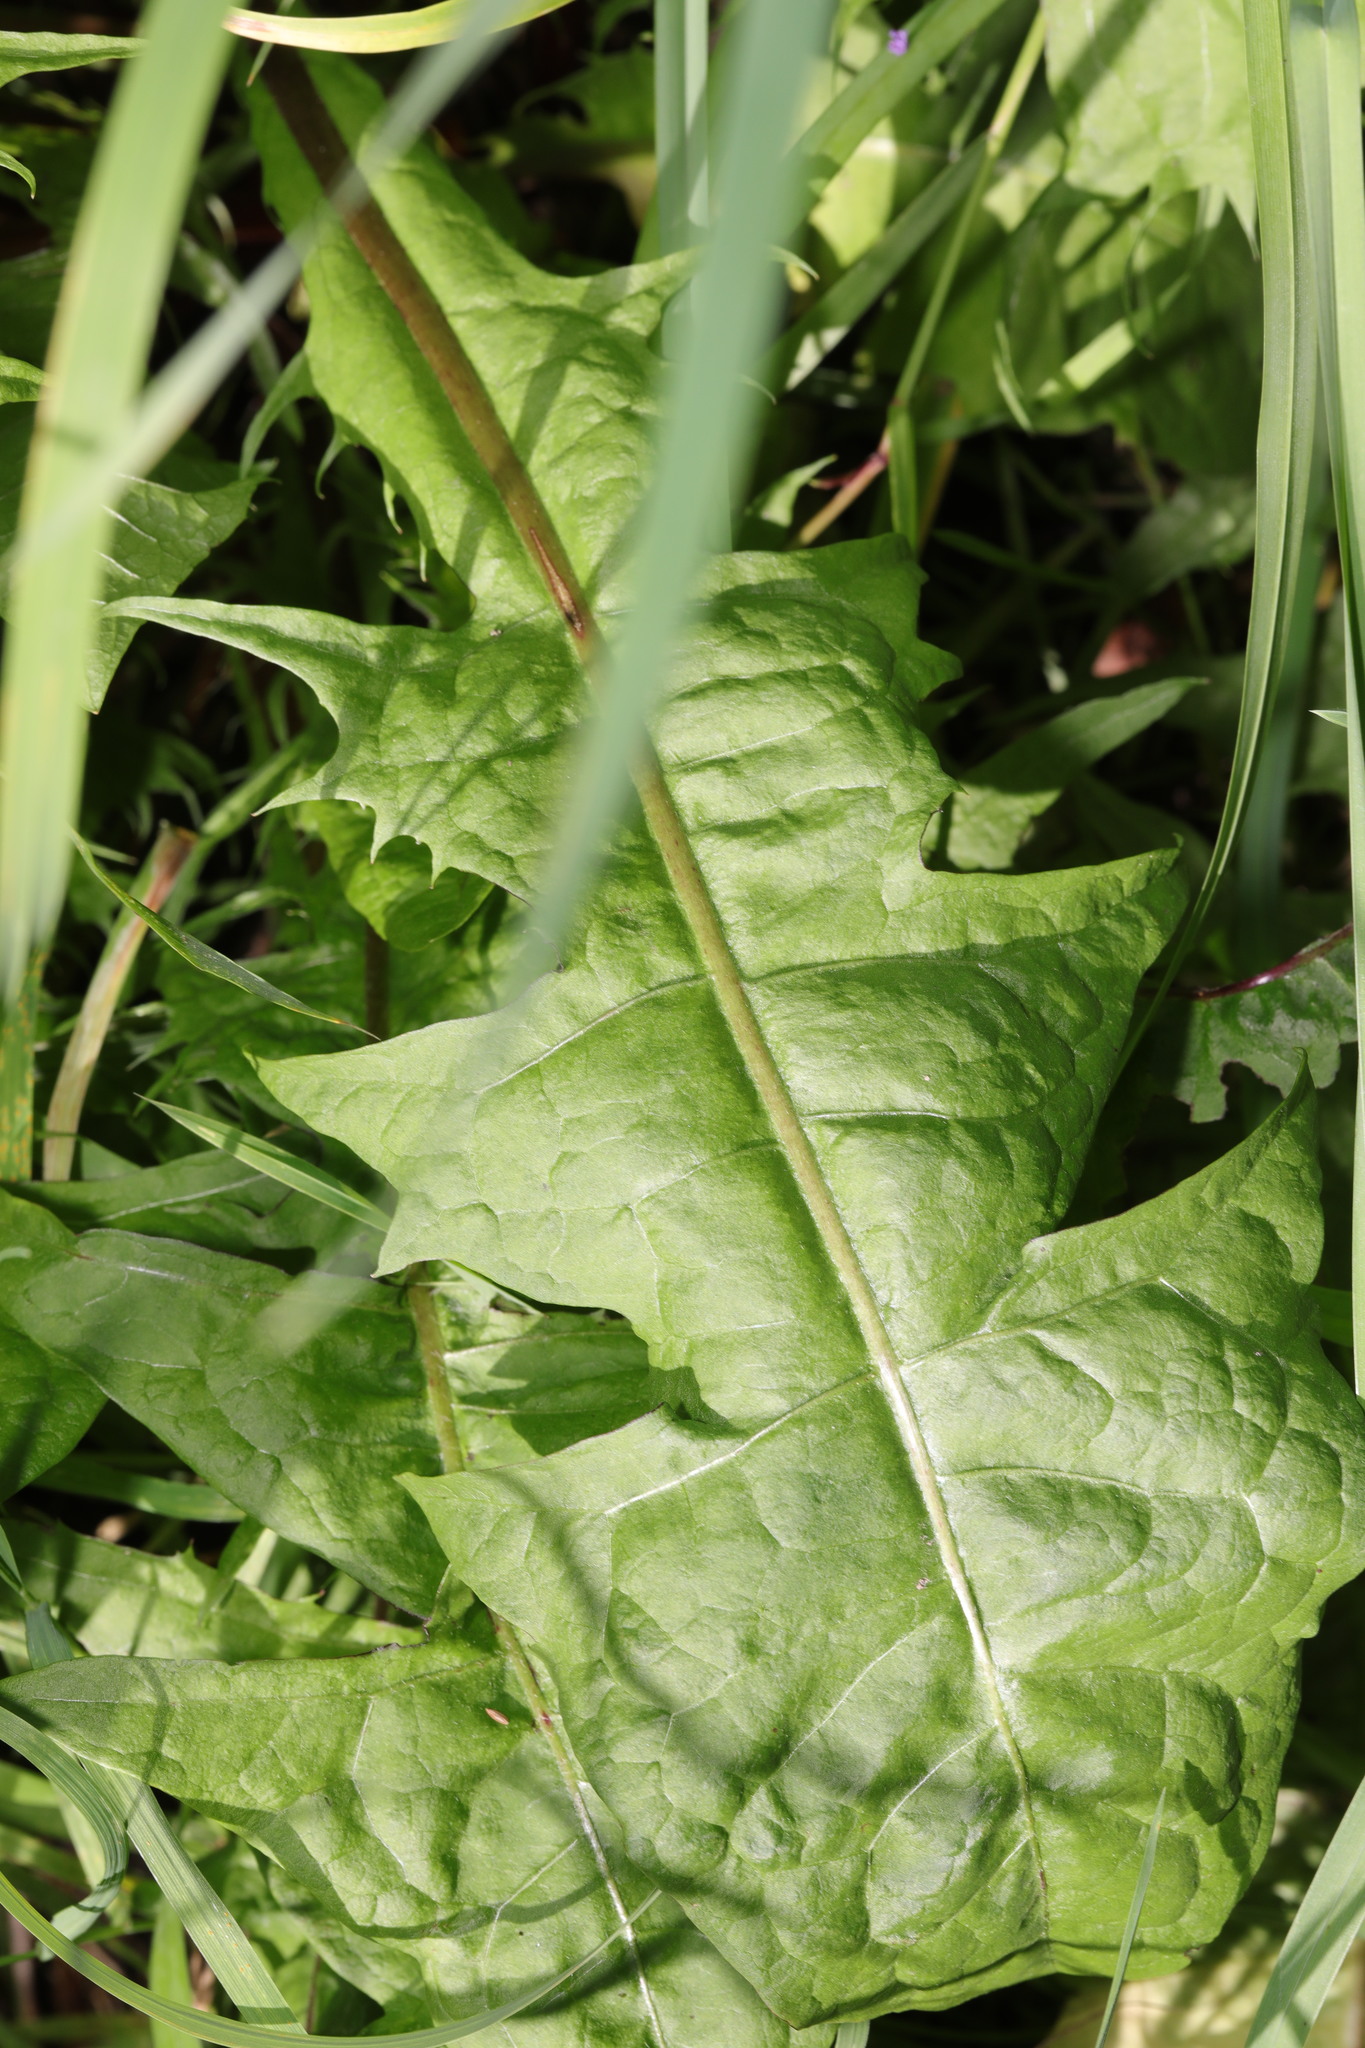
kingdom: Plantae
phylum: Tracheophyta
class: Magnoliopsida
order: Asterales
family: Asteraceae
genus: Taraxacum
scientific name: Taraxacum officinale
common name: Common dandelion
